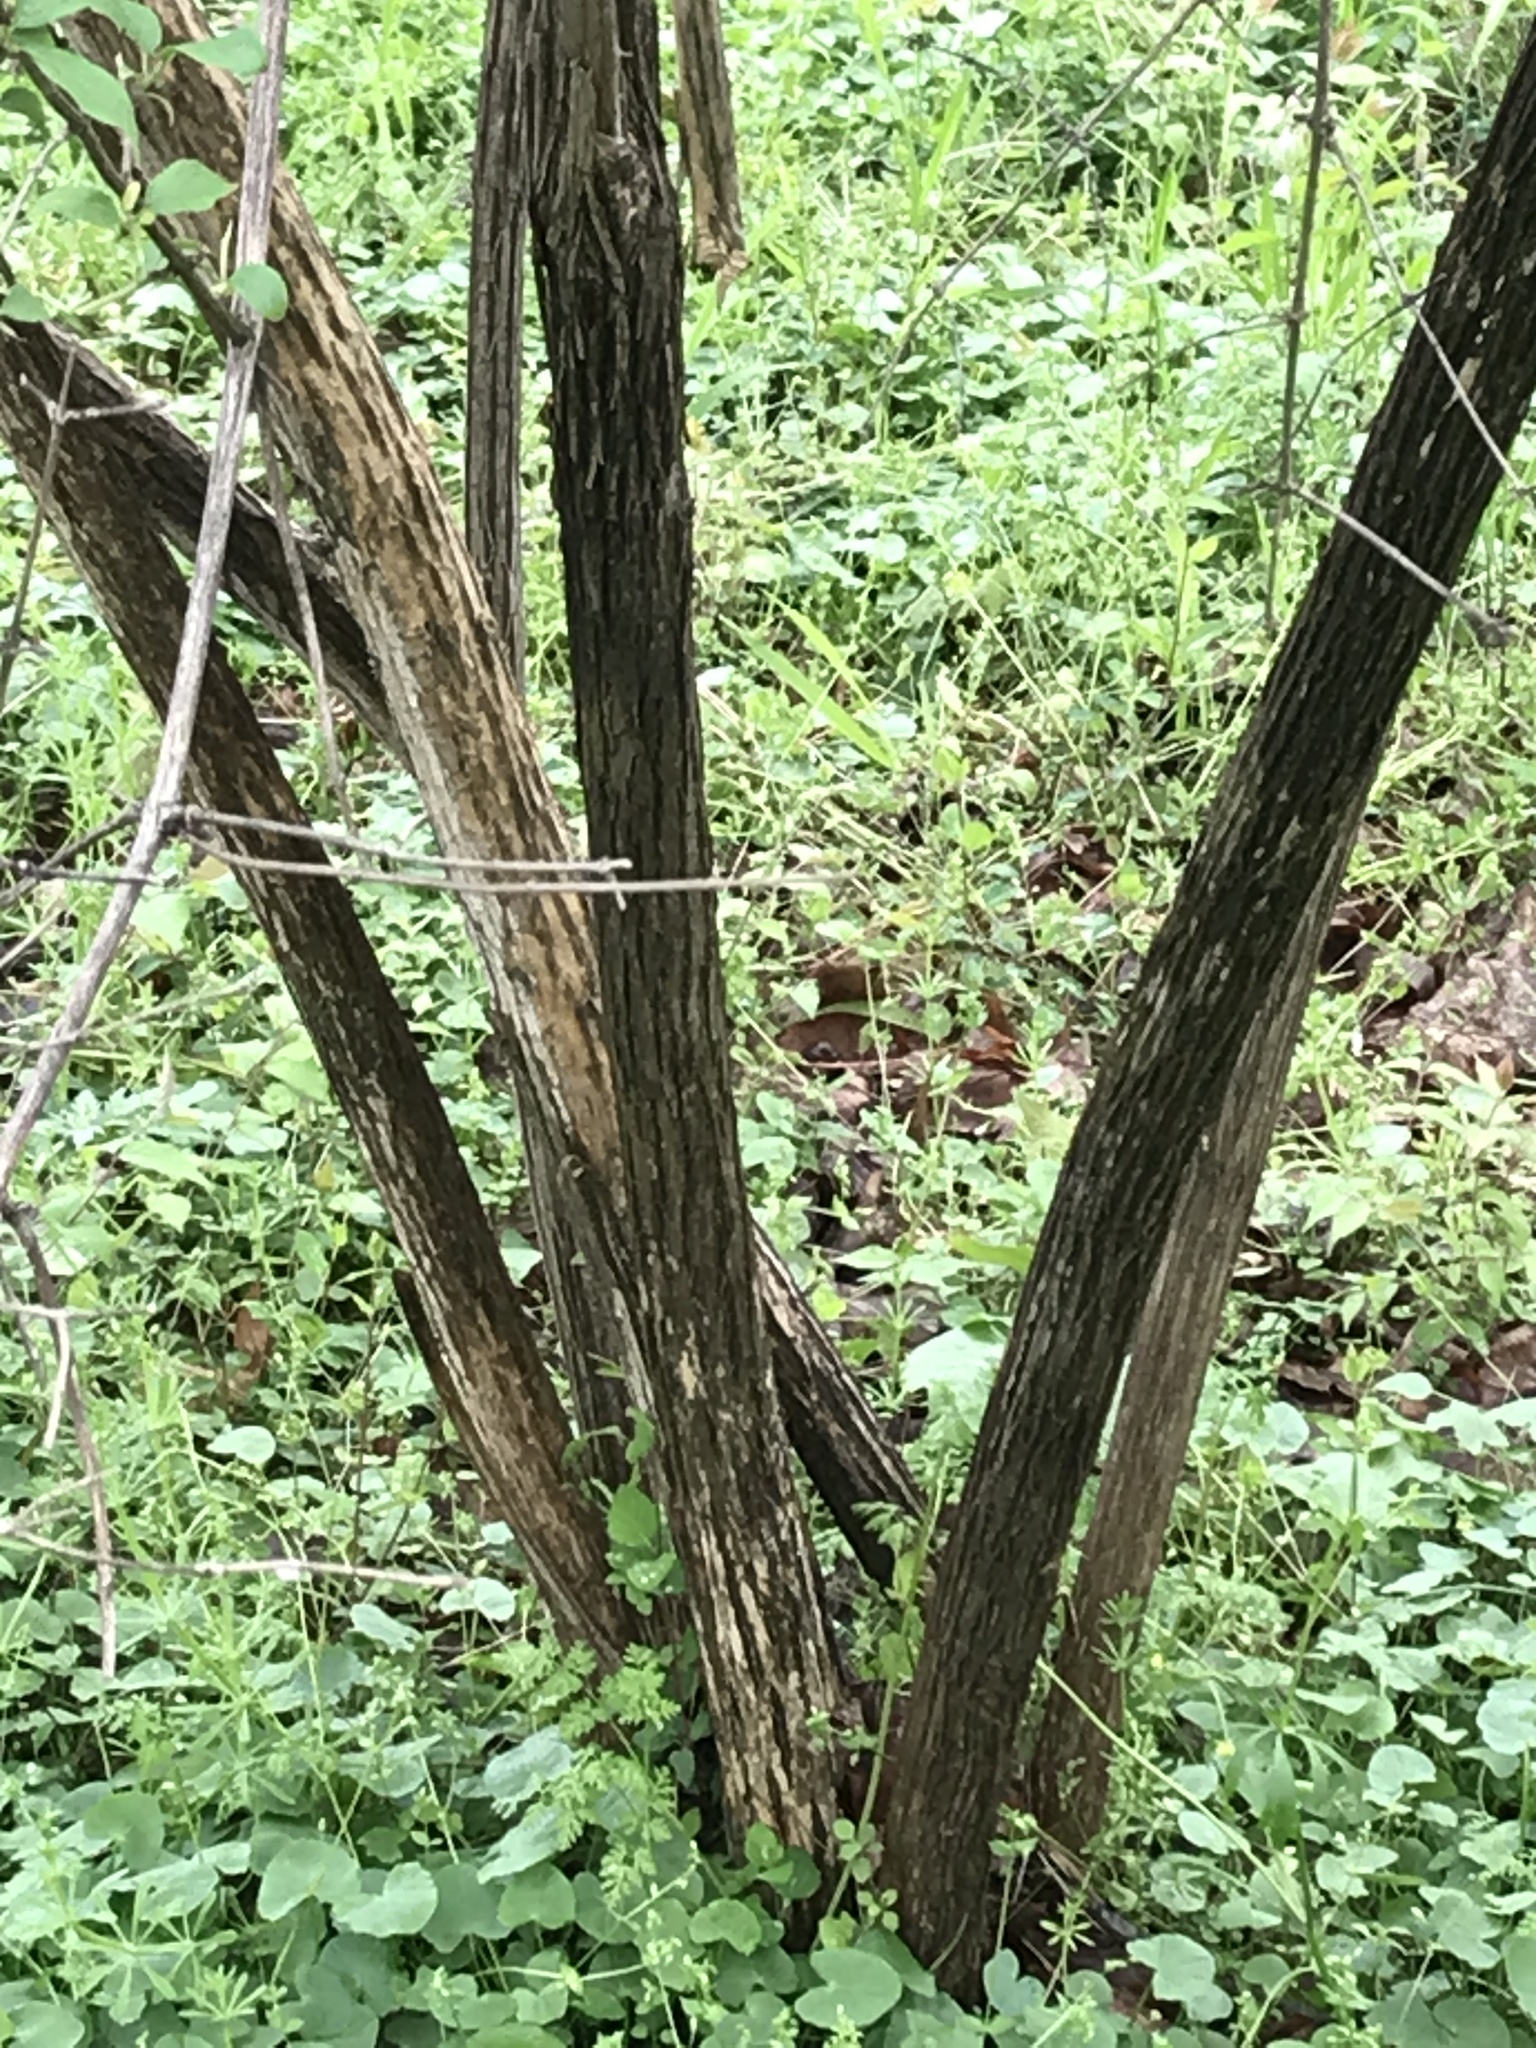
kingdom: Plantae
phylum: Tracheophyta
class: Magnoliopsida
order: Dipsacales
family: Caprifoliaceae
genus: Lonicera
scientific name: Lonicera maackii
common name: Amur honeysuckle
